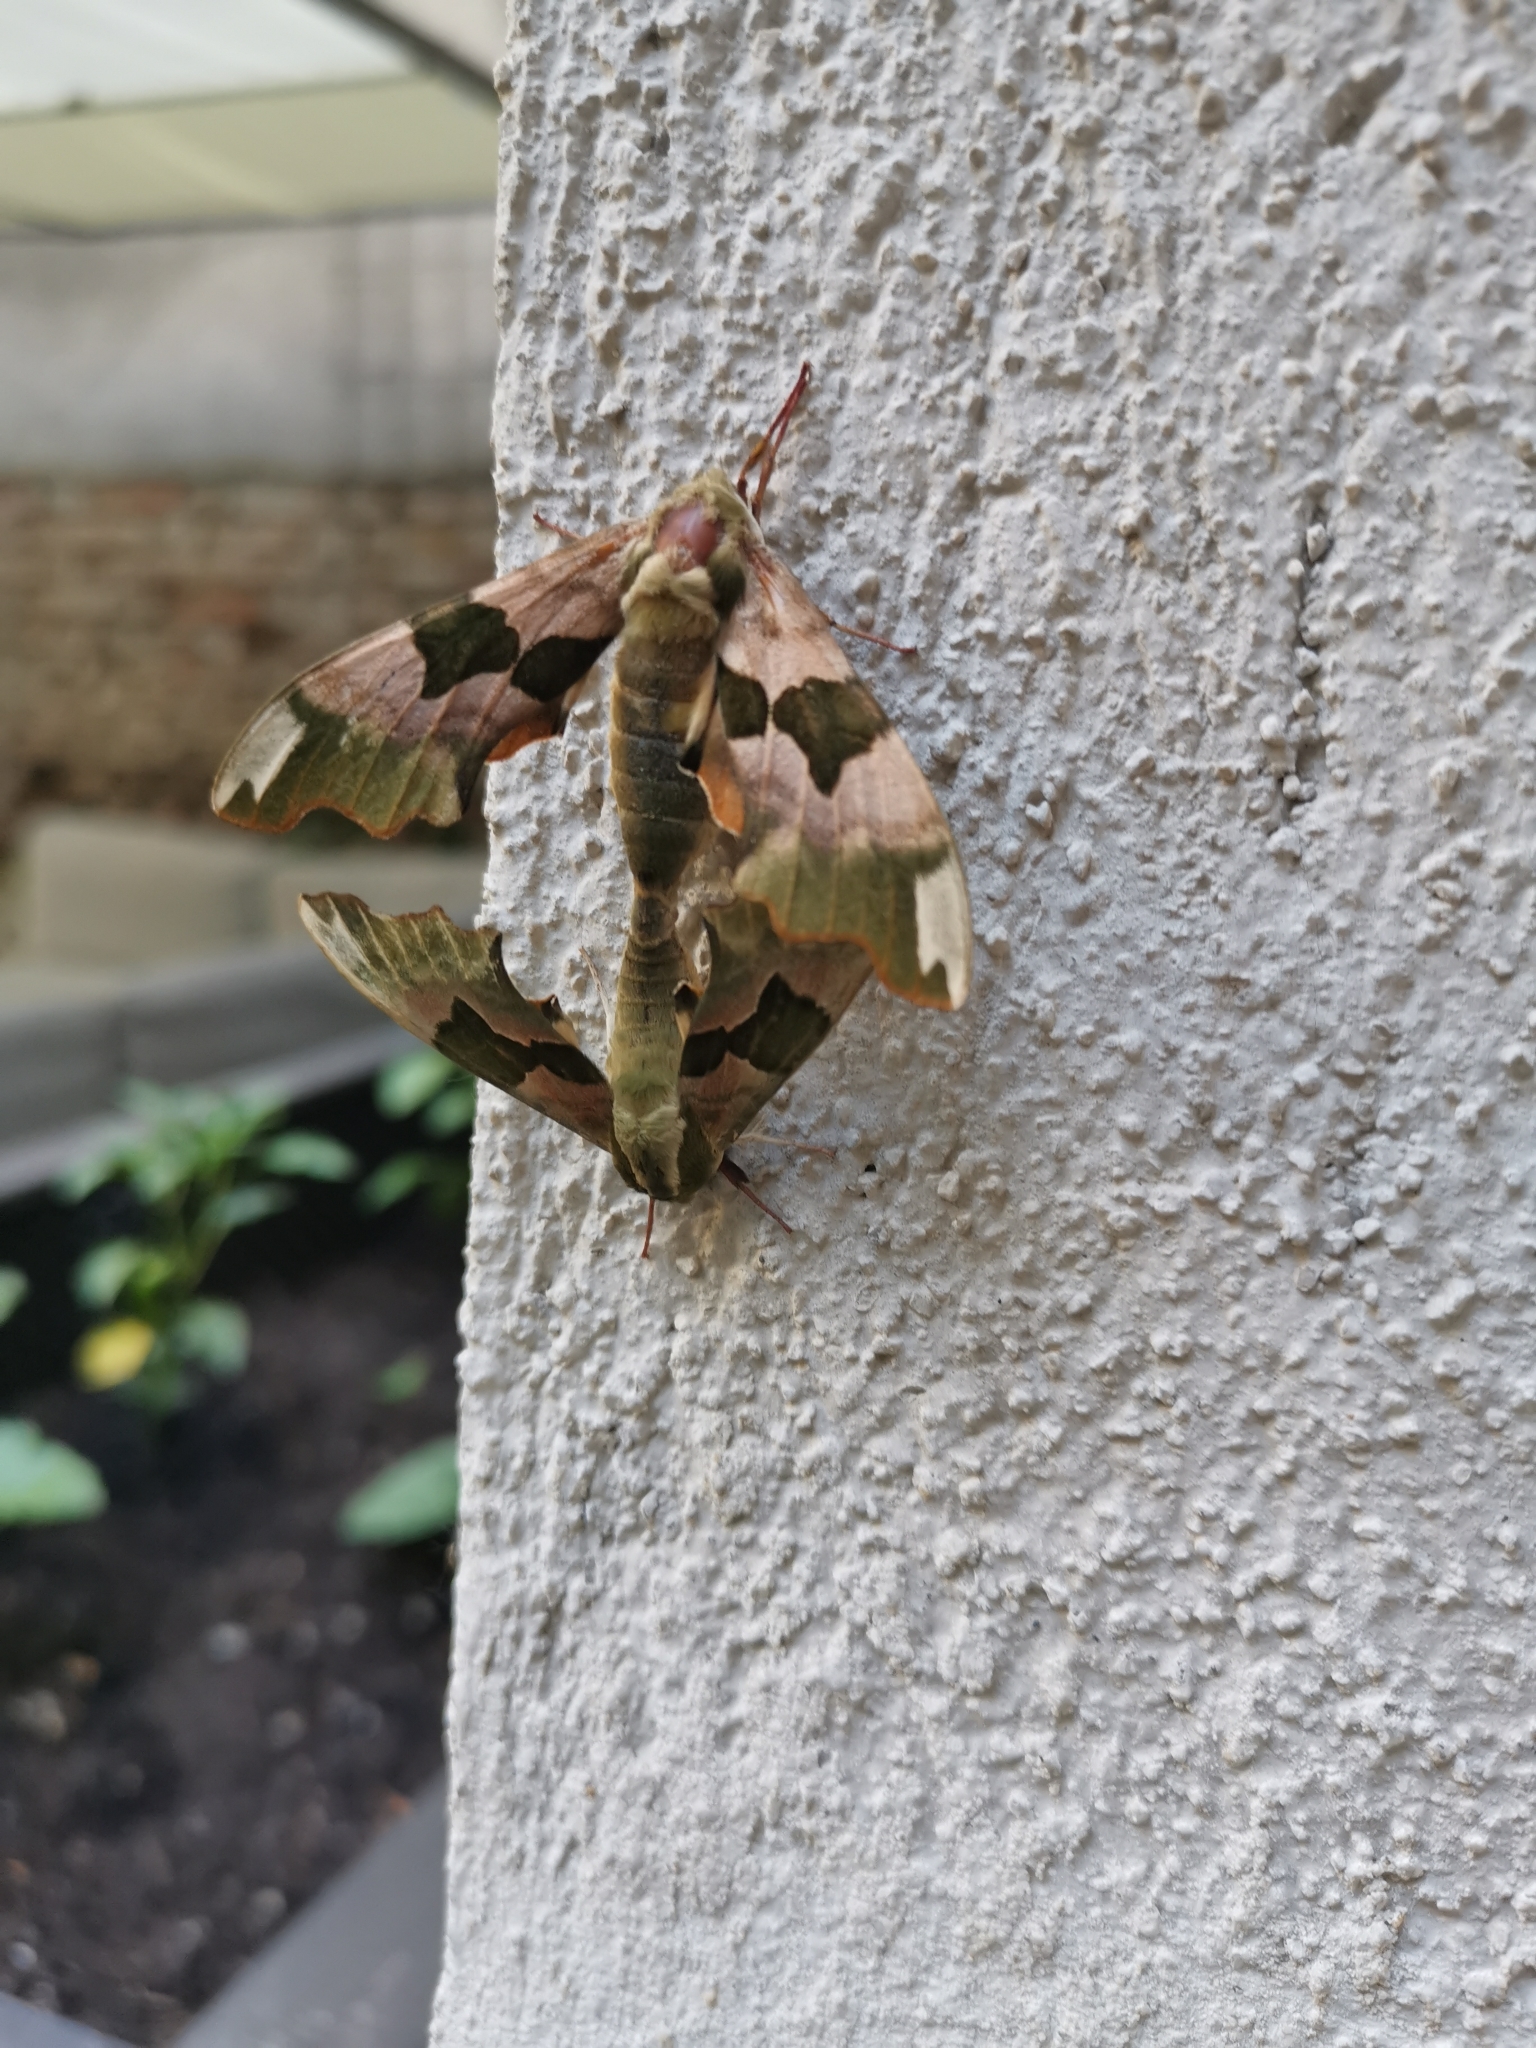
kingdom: Animalia
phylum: Arthropoda
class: Insecta
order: Lepidoptera
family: Sphingidae
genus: Mimas
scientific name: Mimas tiliae
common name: Lime hawk-moth
